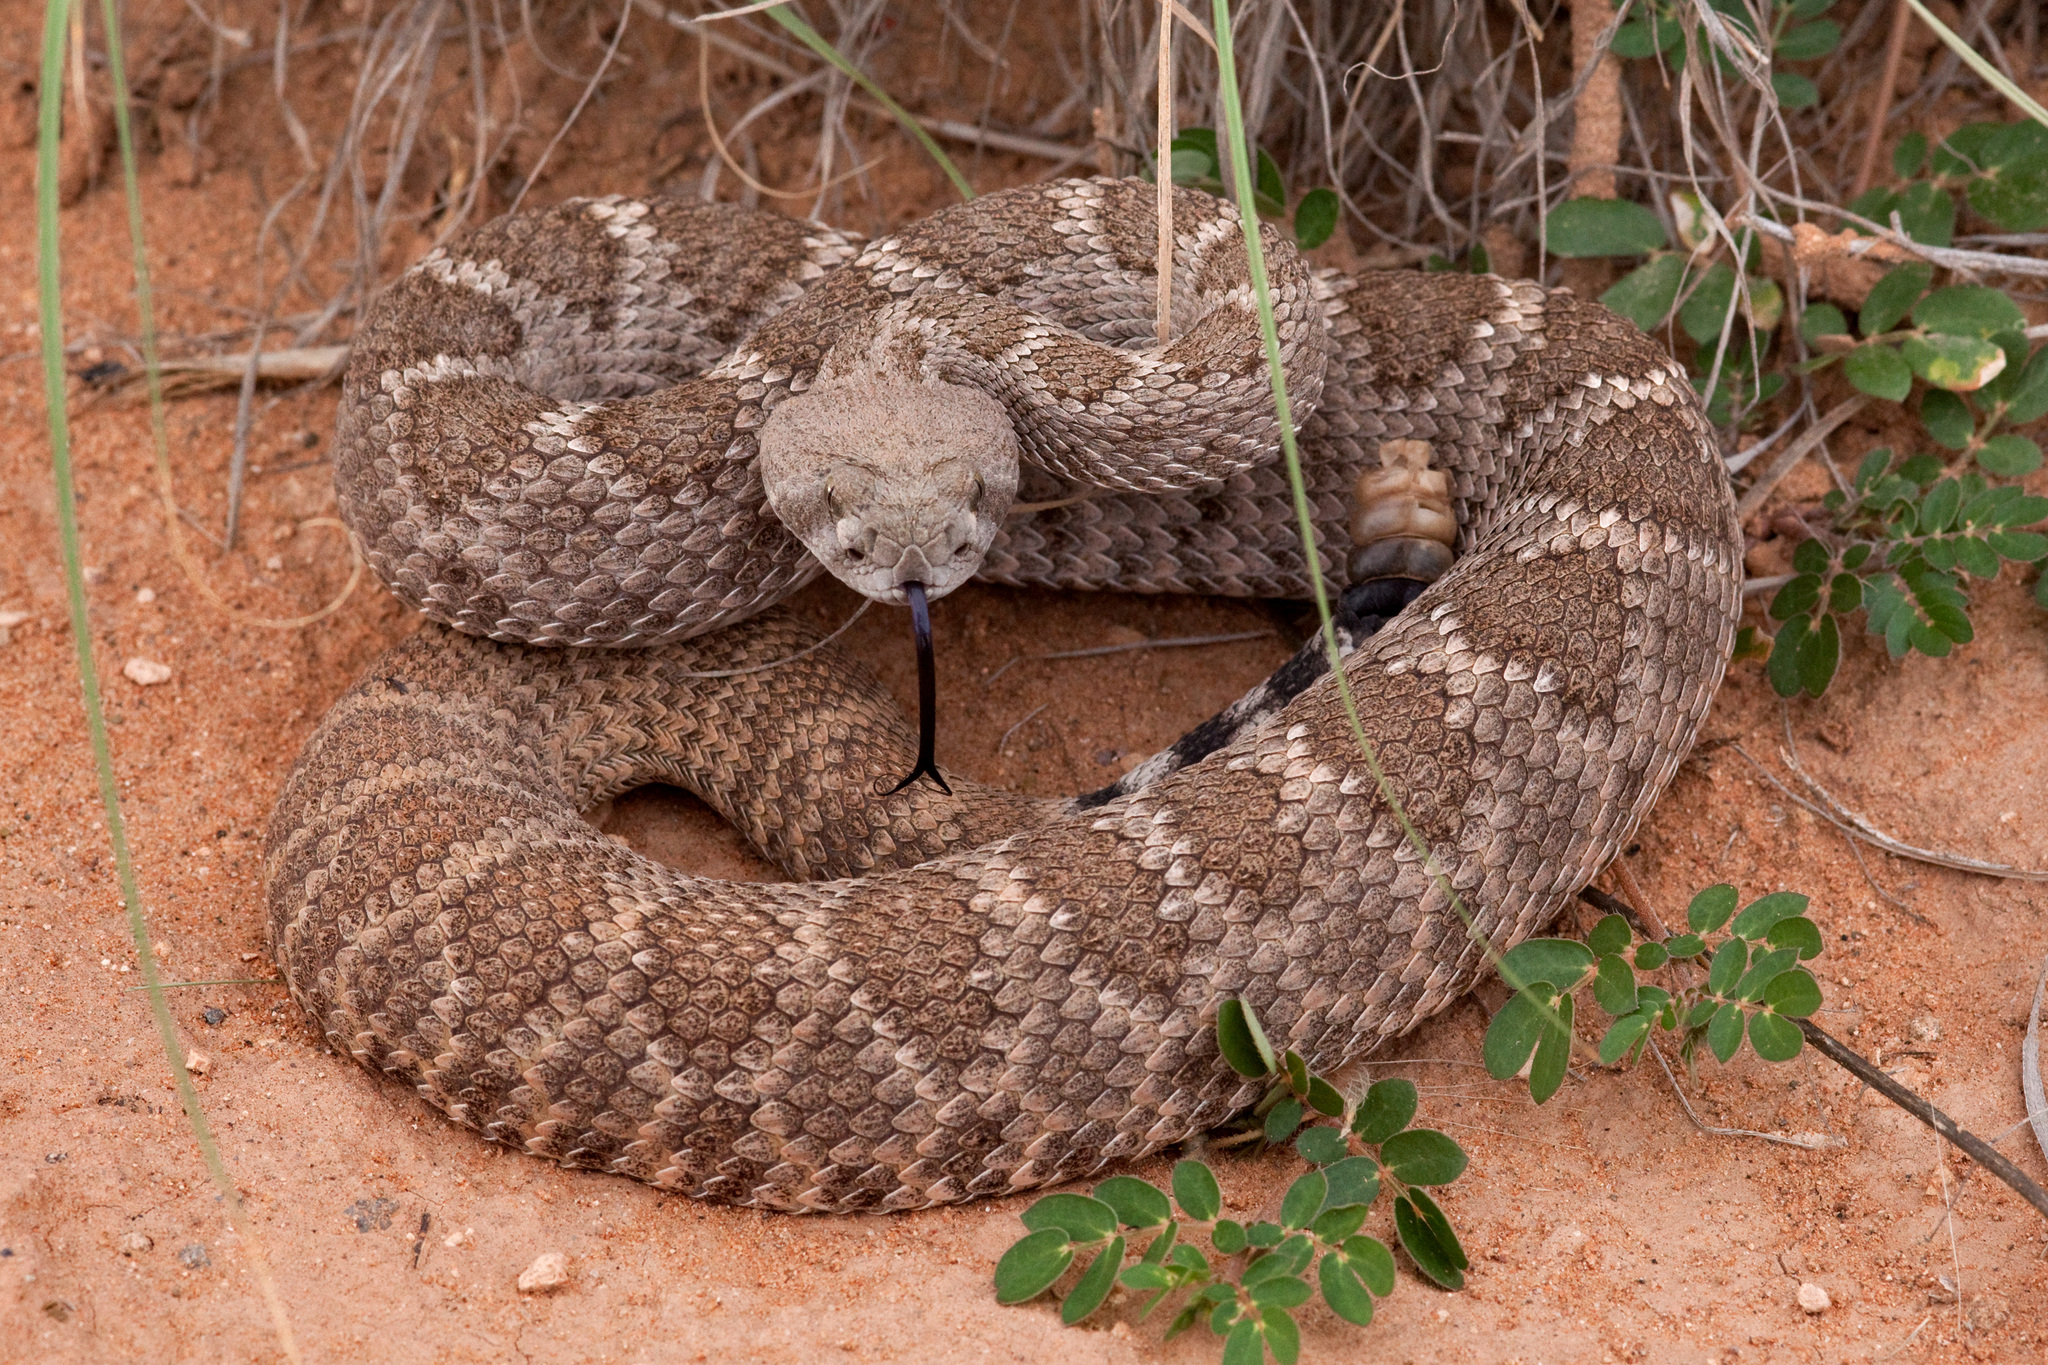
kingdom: Animalia
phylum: Chordata
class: Squamata
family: Viperidae
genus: Crotalus
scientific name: Crotalus atrox
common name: Western diamond-backed rattlesnake
